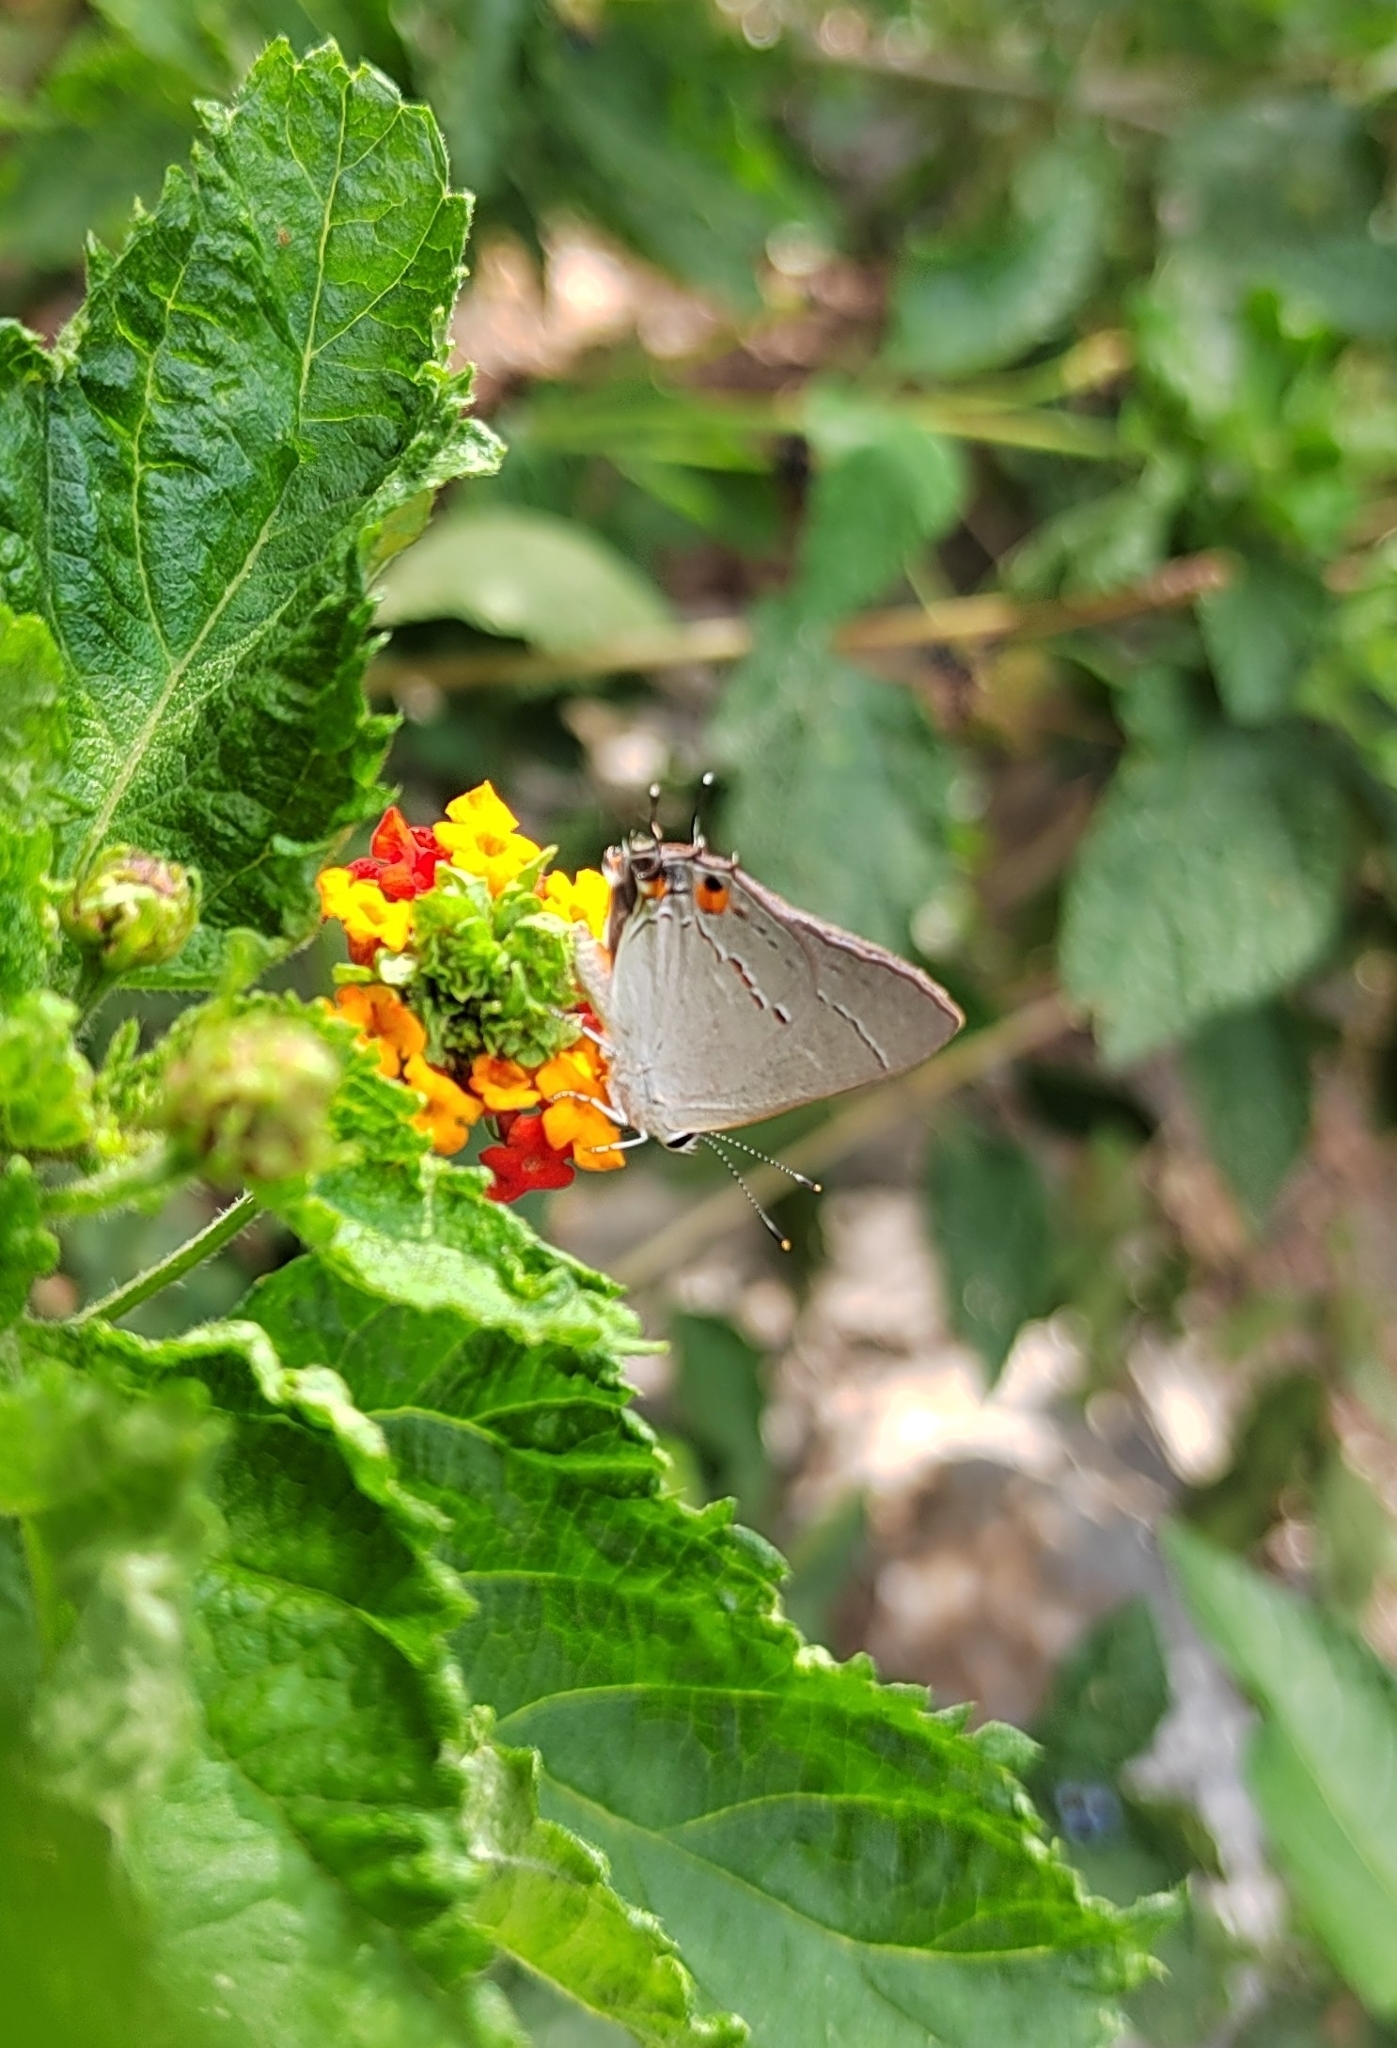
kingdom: Animalia
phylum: Arthropoda
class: Insecta
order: Lepidoptera
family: Lycaenidae
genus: Strymon
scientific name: Strymon melinus
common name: Gray hairstreak
